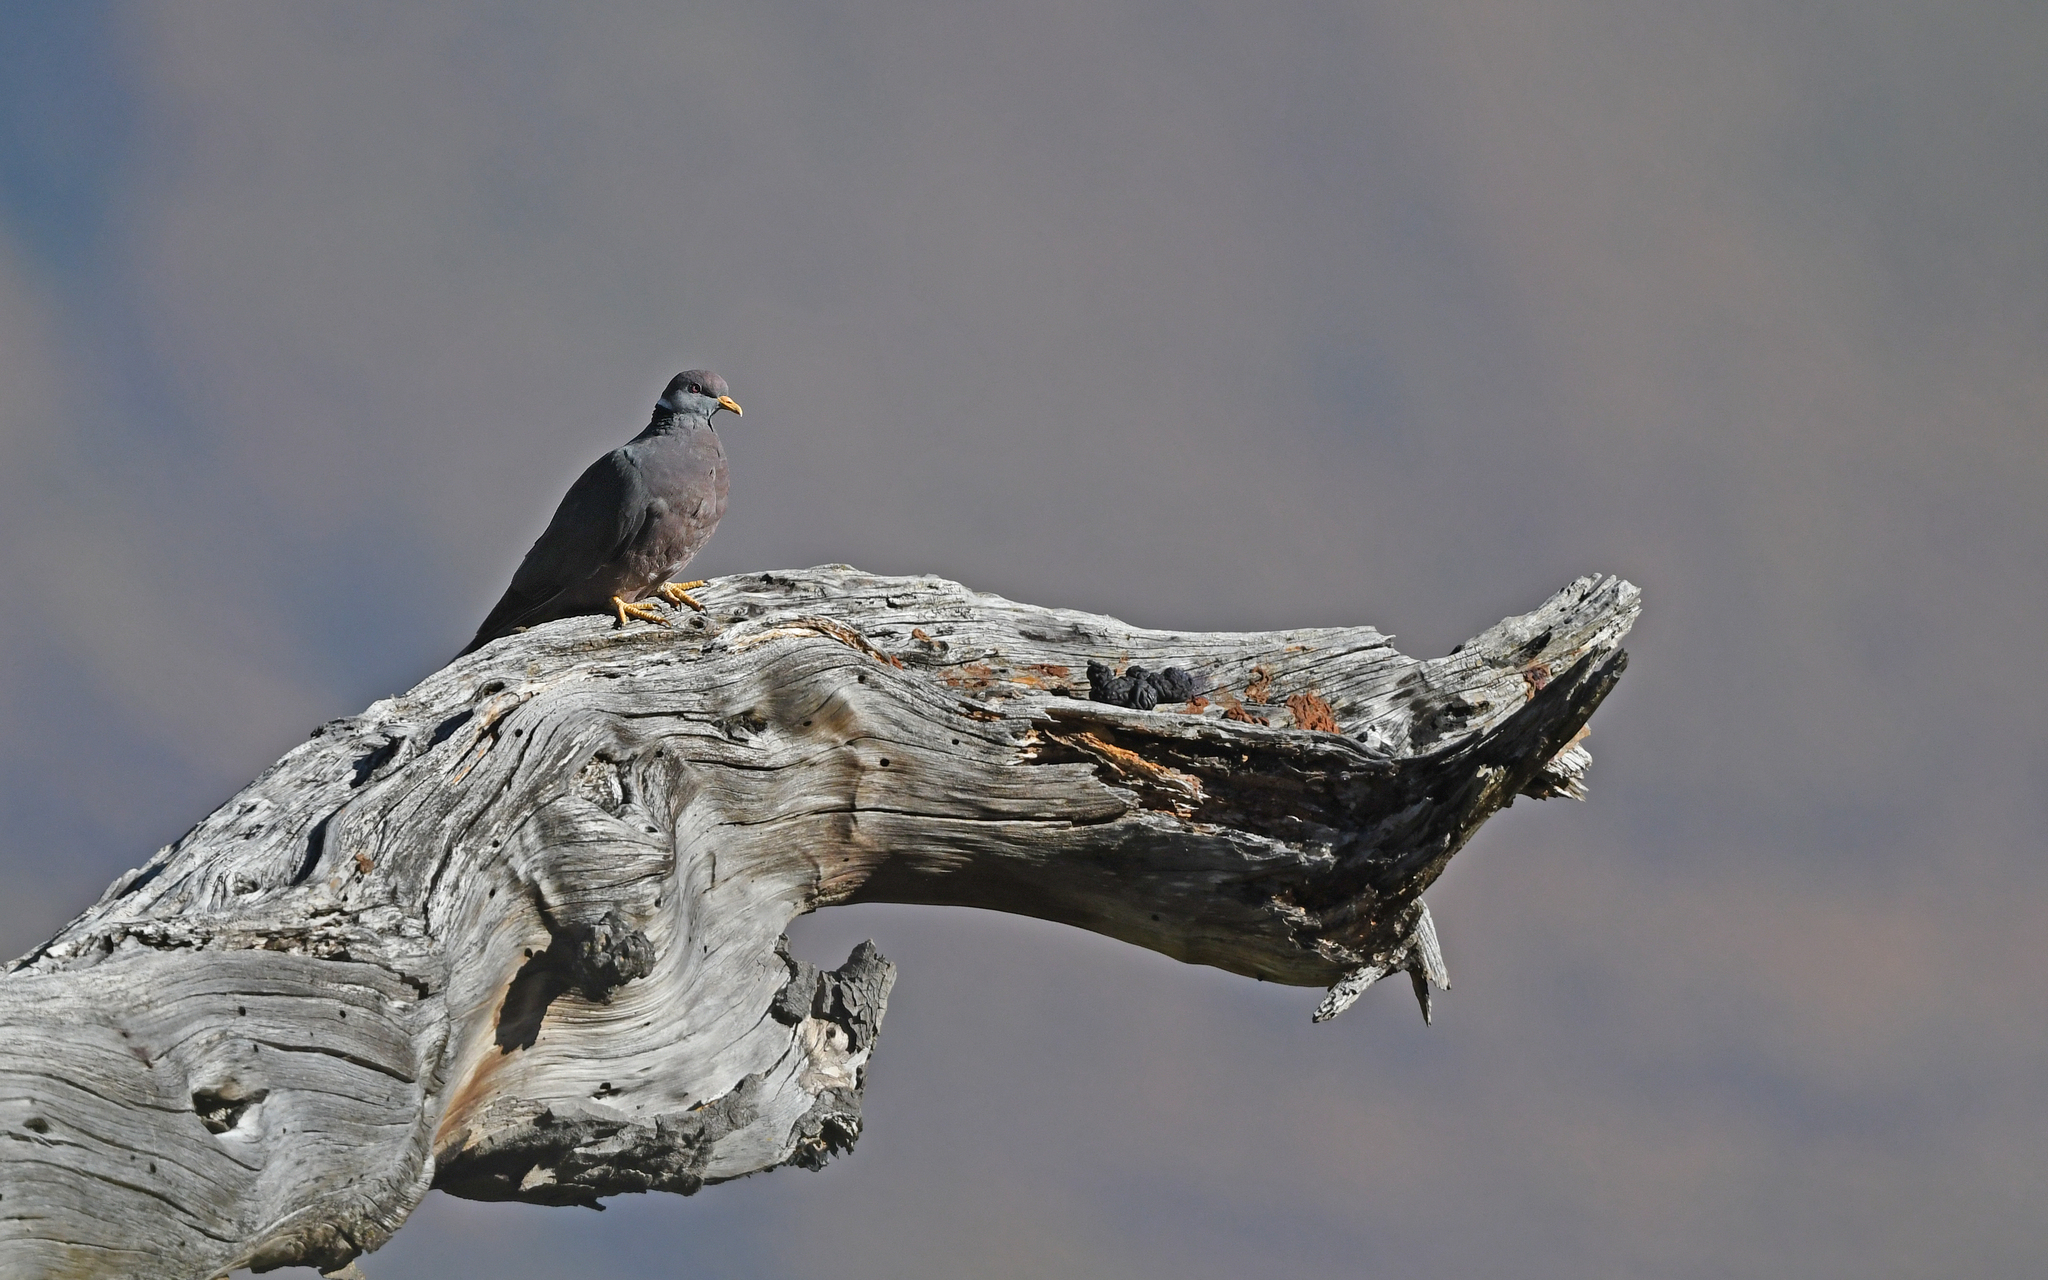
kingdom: Animalia
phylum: Chordata
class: Aves
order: Columbiformes
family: Columbidae
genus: Patagioenas
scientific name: Patagioenas fasciata
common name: Band-tailed pigeon
